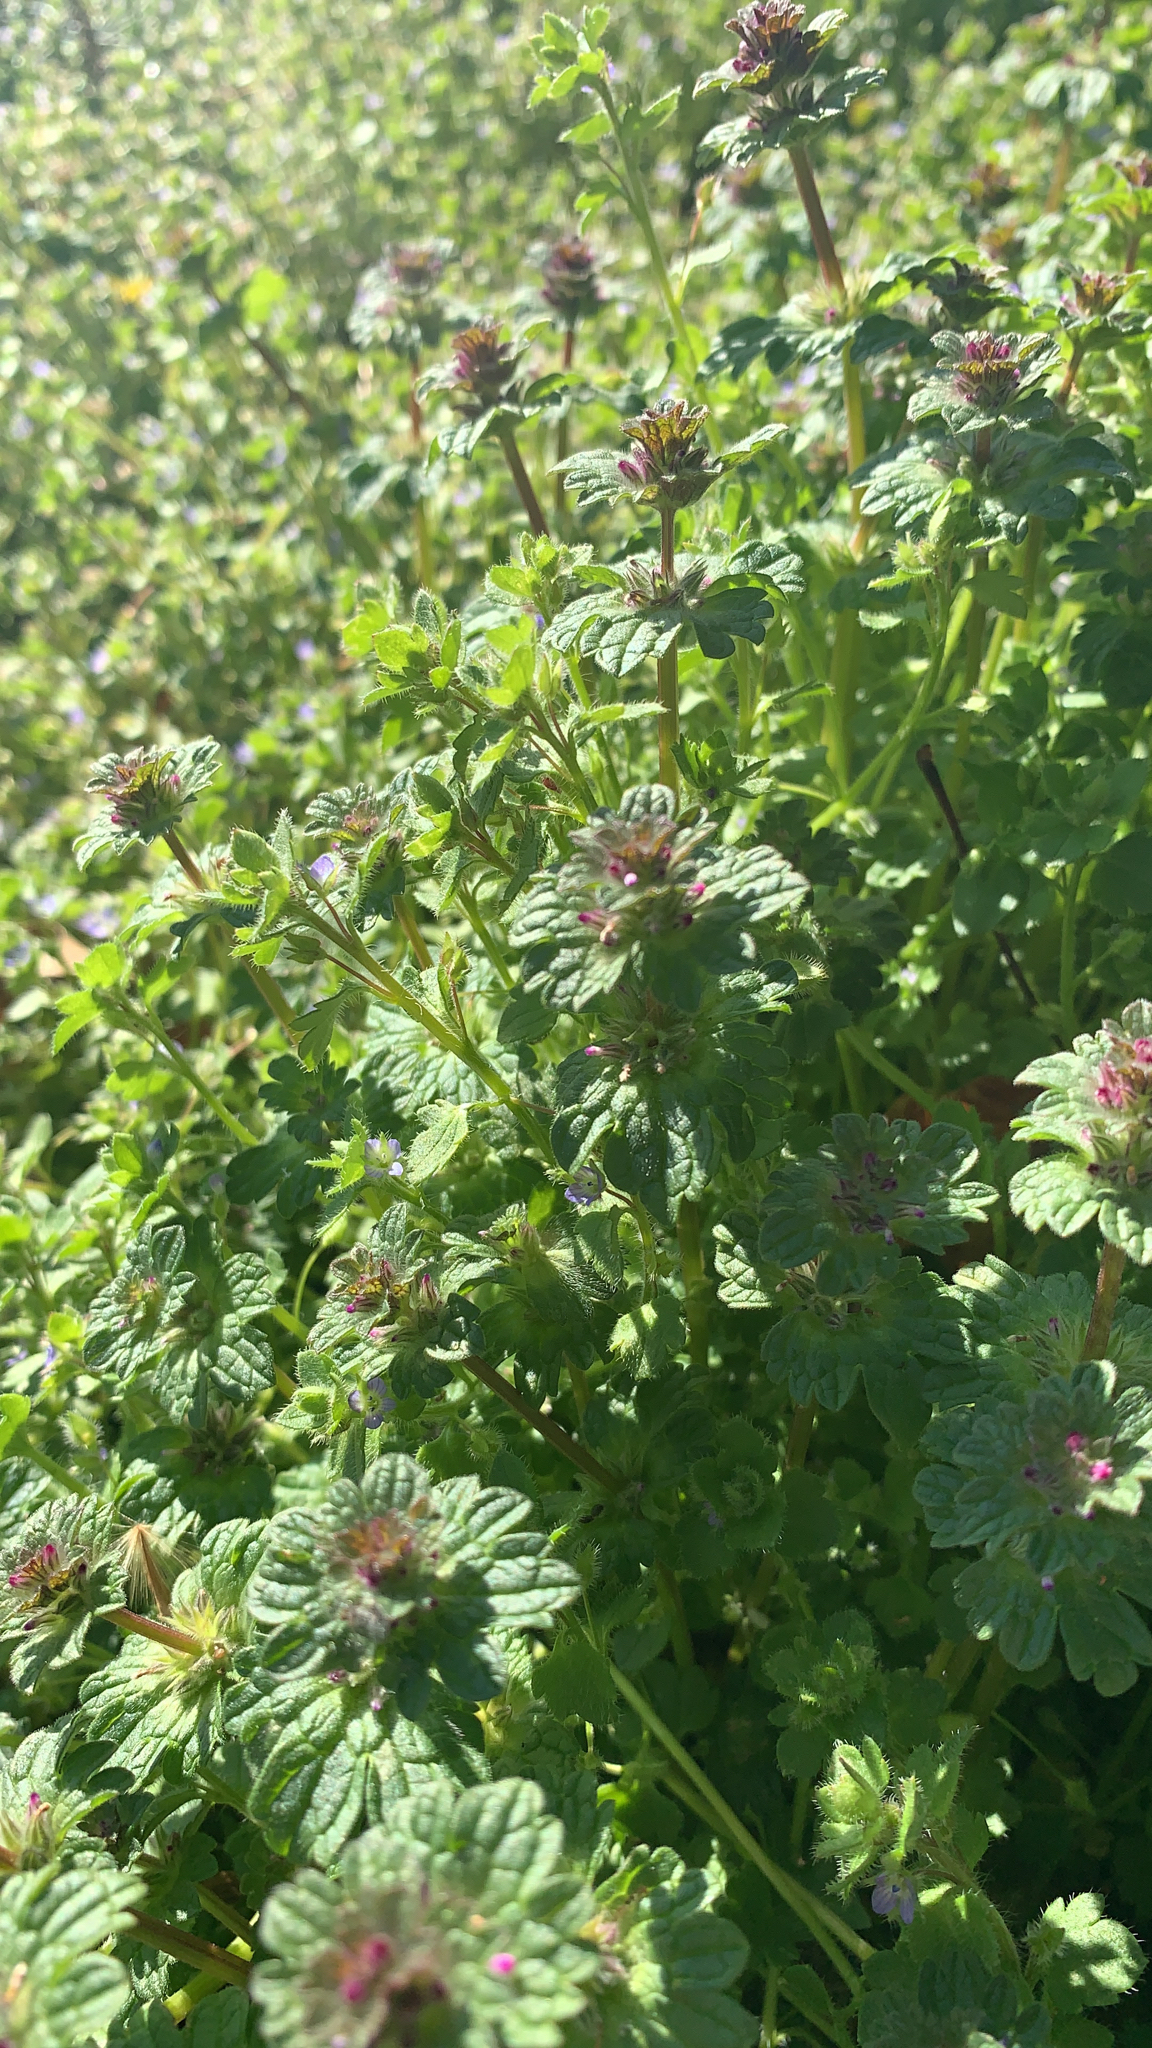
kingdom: Plantae
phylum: Tracheophyta
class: Magnoliopsida
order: Lamiales
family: Lamiaceae
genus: Lamium
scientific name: Lamium amplexicaule
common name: Henbit dead-nettle
